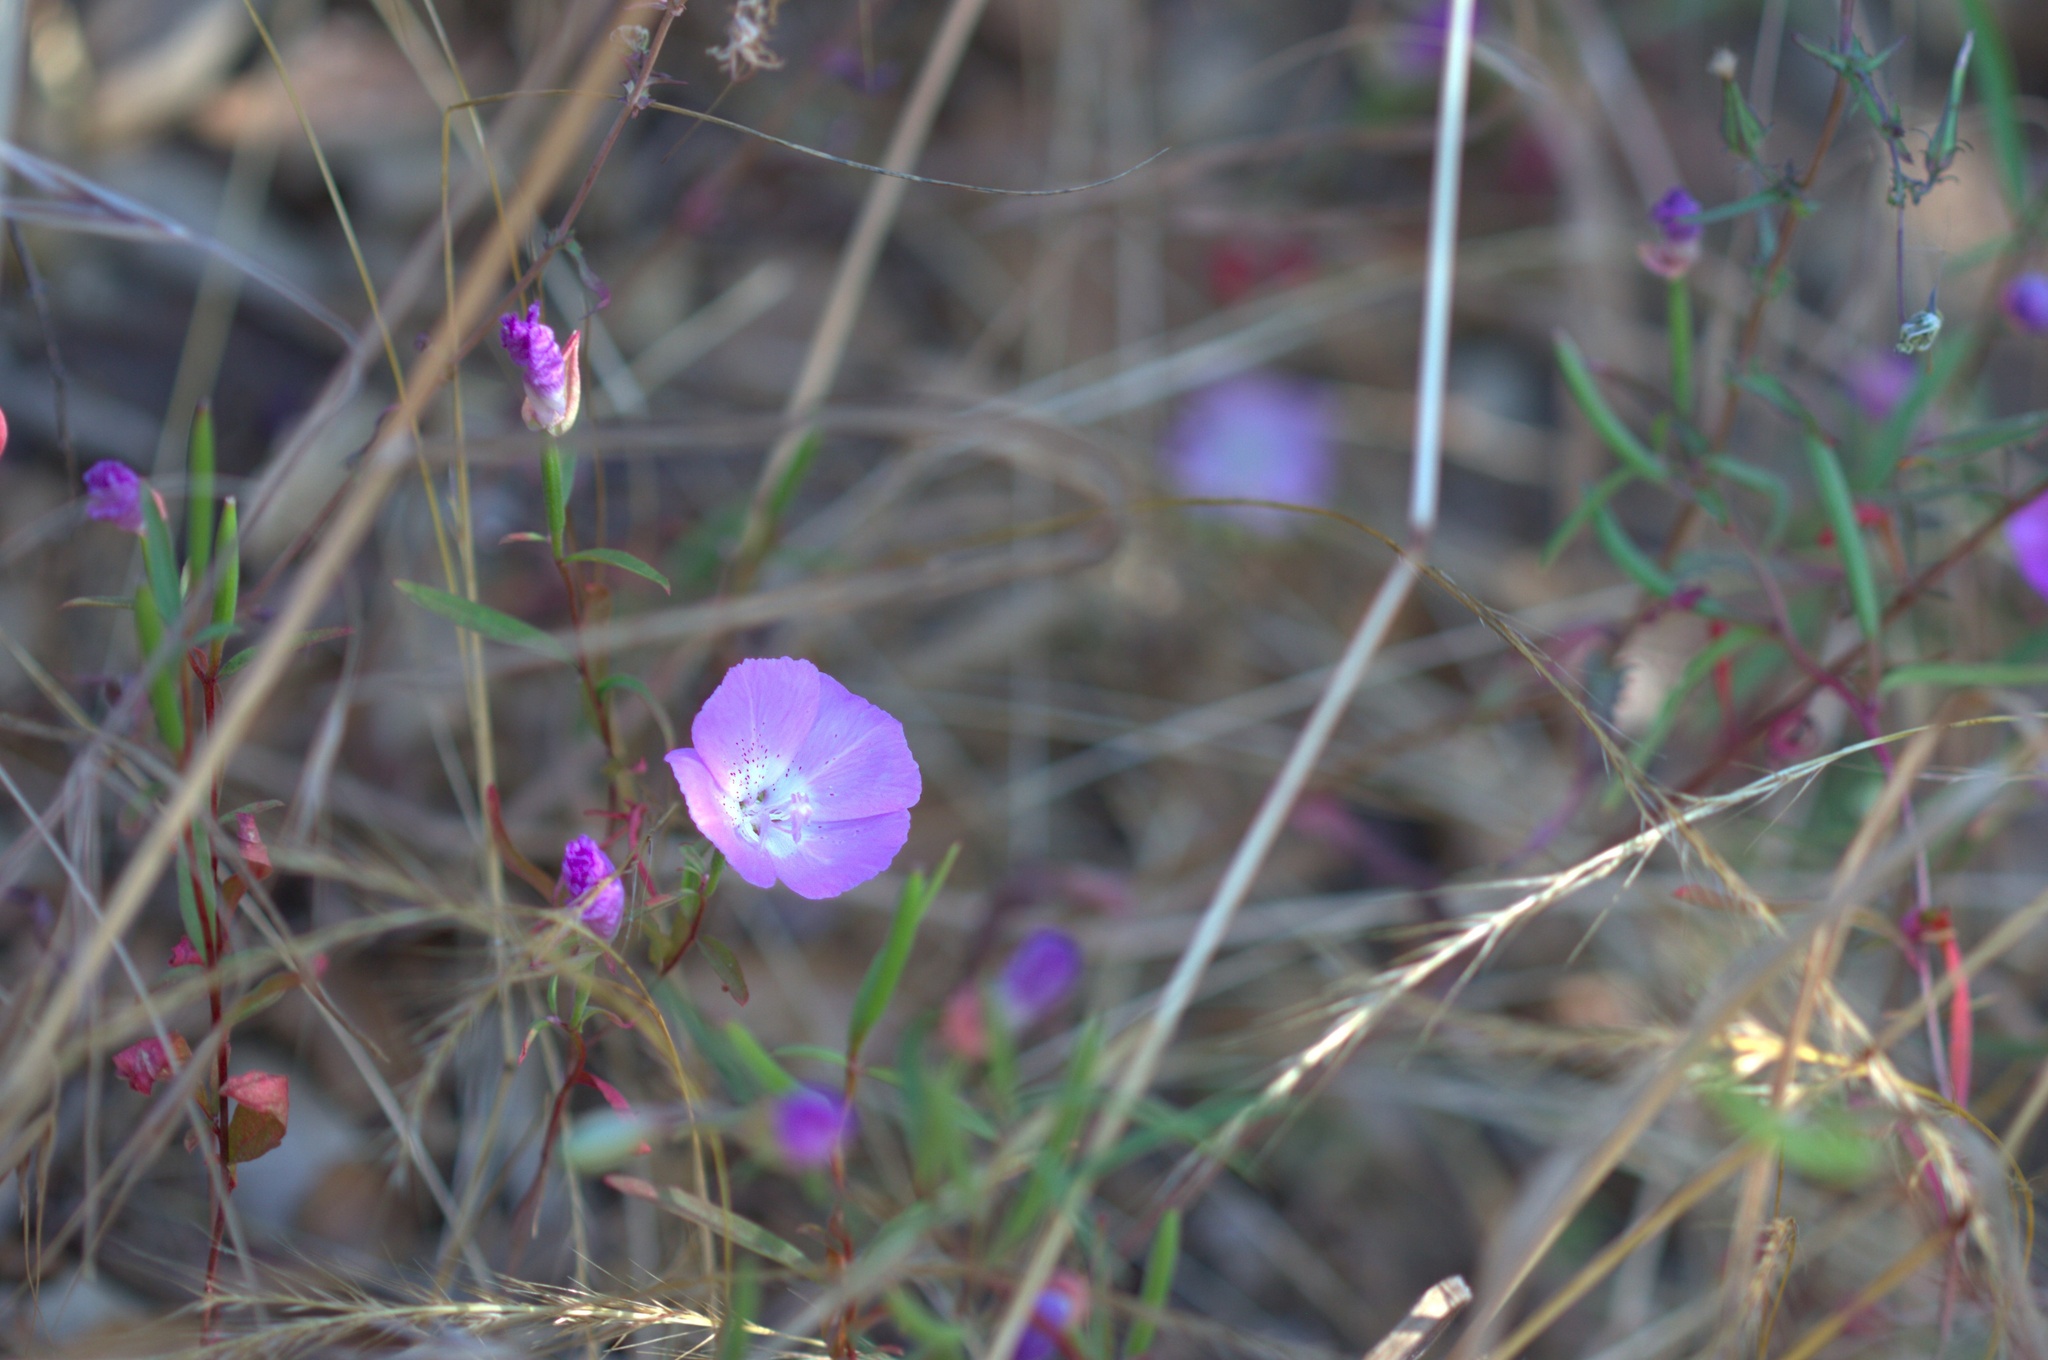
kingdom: Plantae
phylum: Tracheophyta
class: Magnoliopsida
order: Myrtales
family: Onagraceae
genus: Clarkia
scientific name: Clarkia bottae
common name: Punch-bowl godetia
